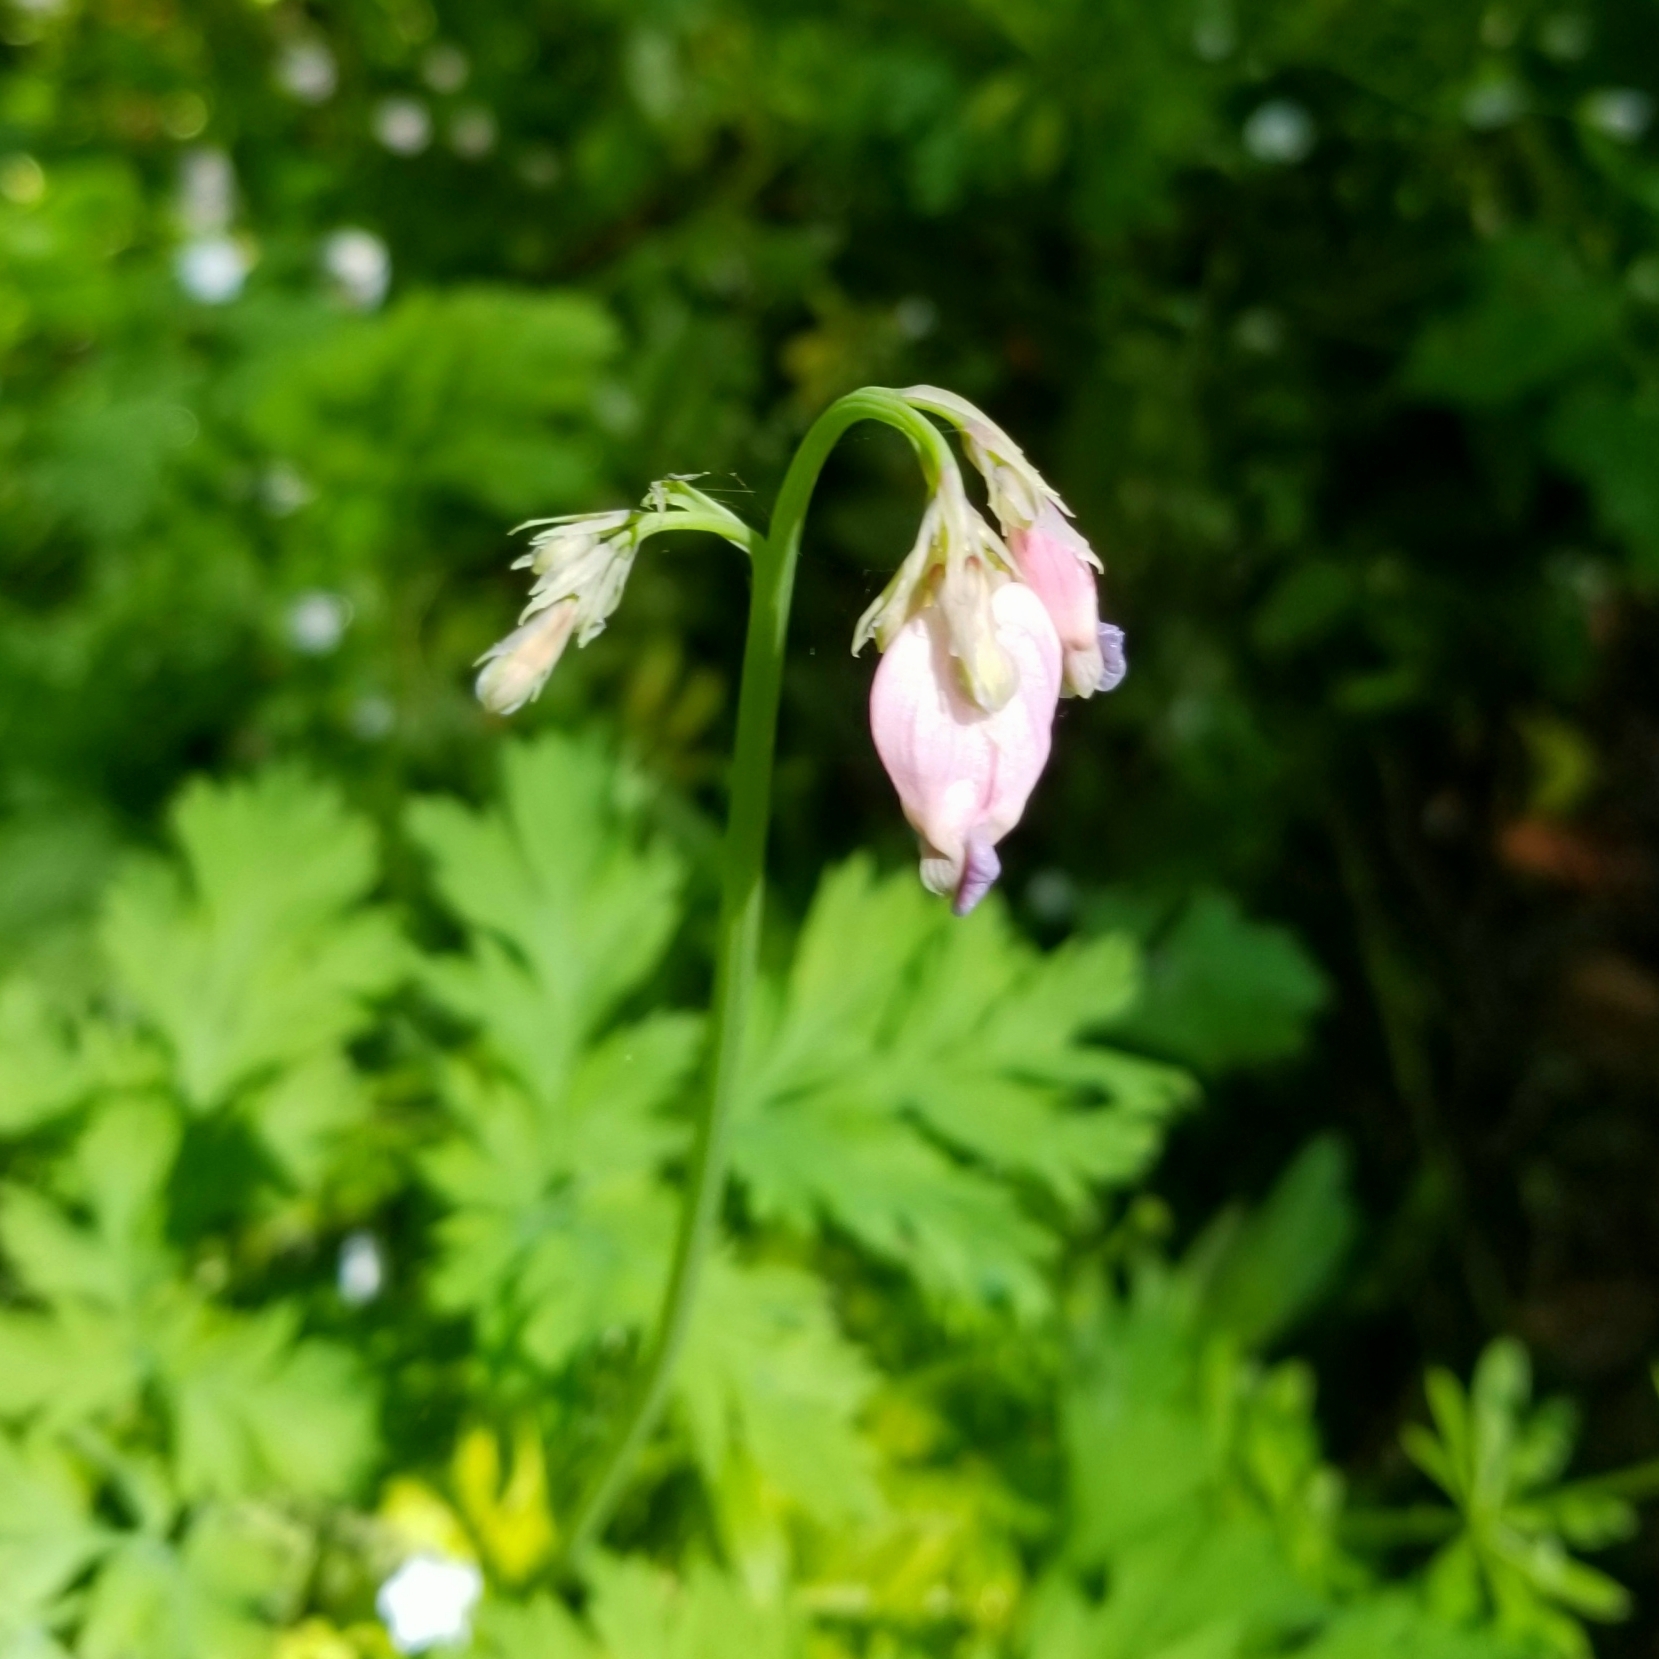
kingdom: Plantae
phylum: Tracheophyta
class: Magnoliopsida
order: Ranunculales
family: Papaveraceae
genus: Dicentra
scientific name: Dicentra formosa
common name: Bleeding-heart
